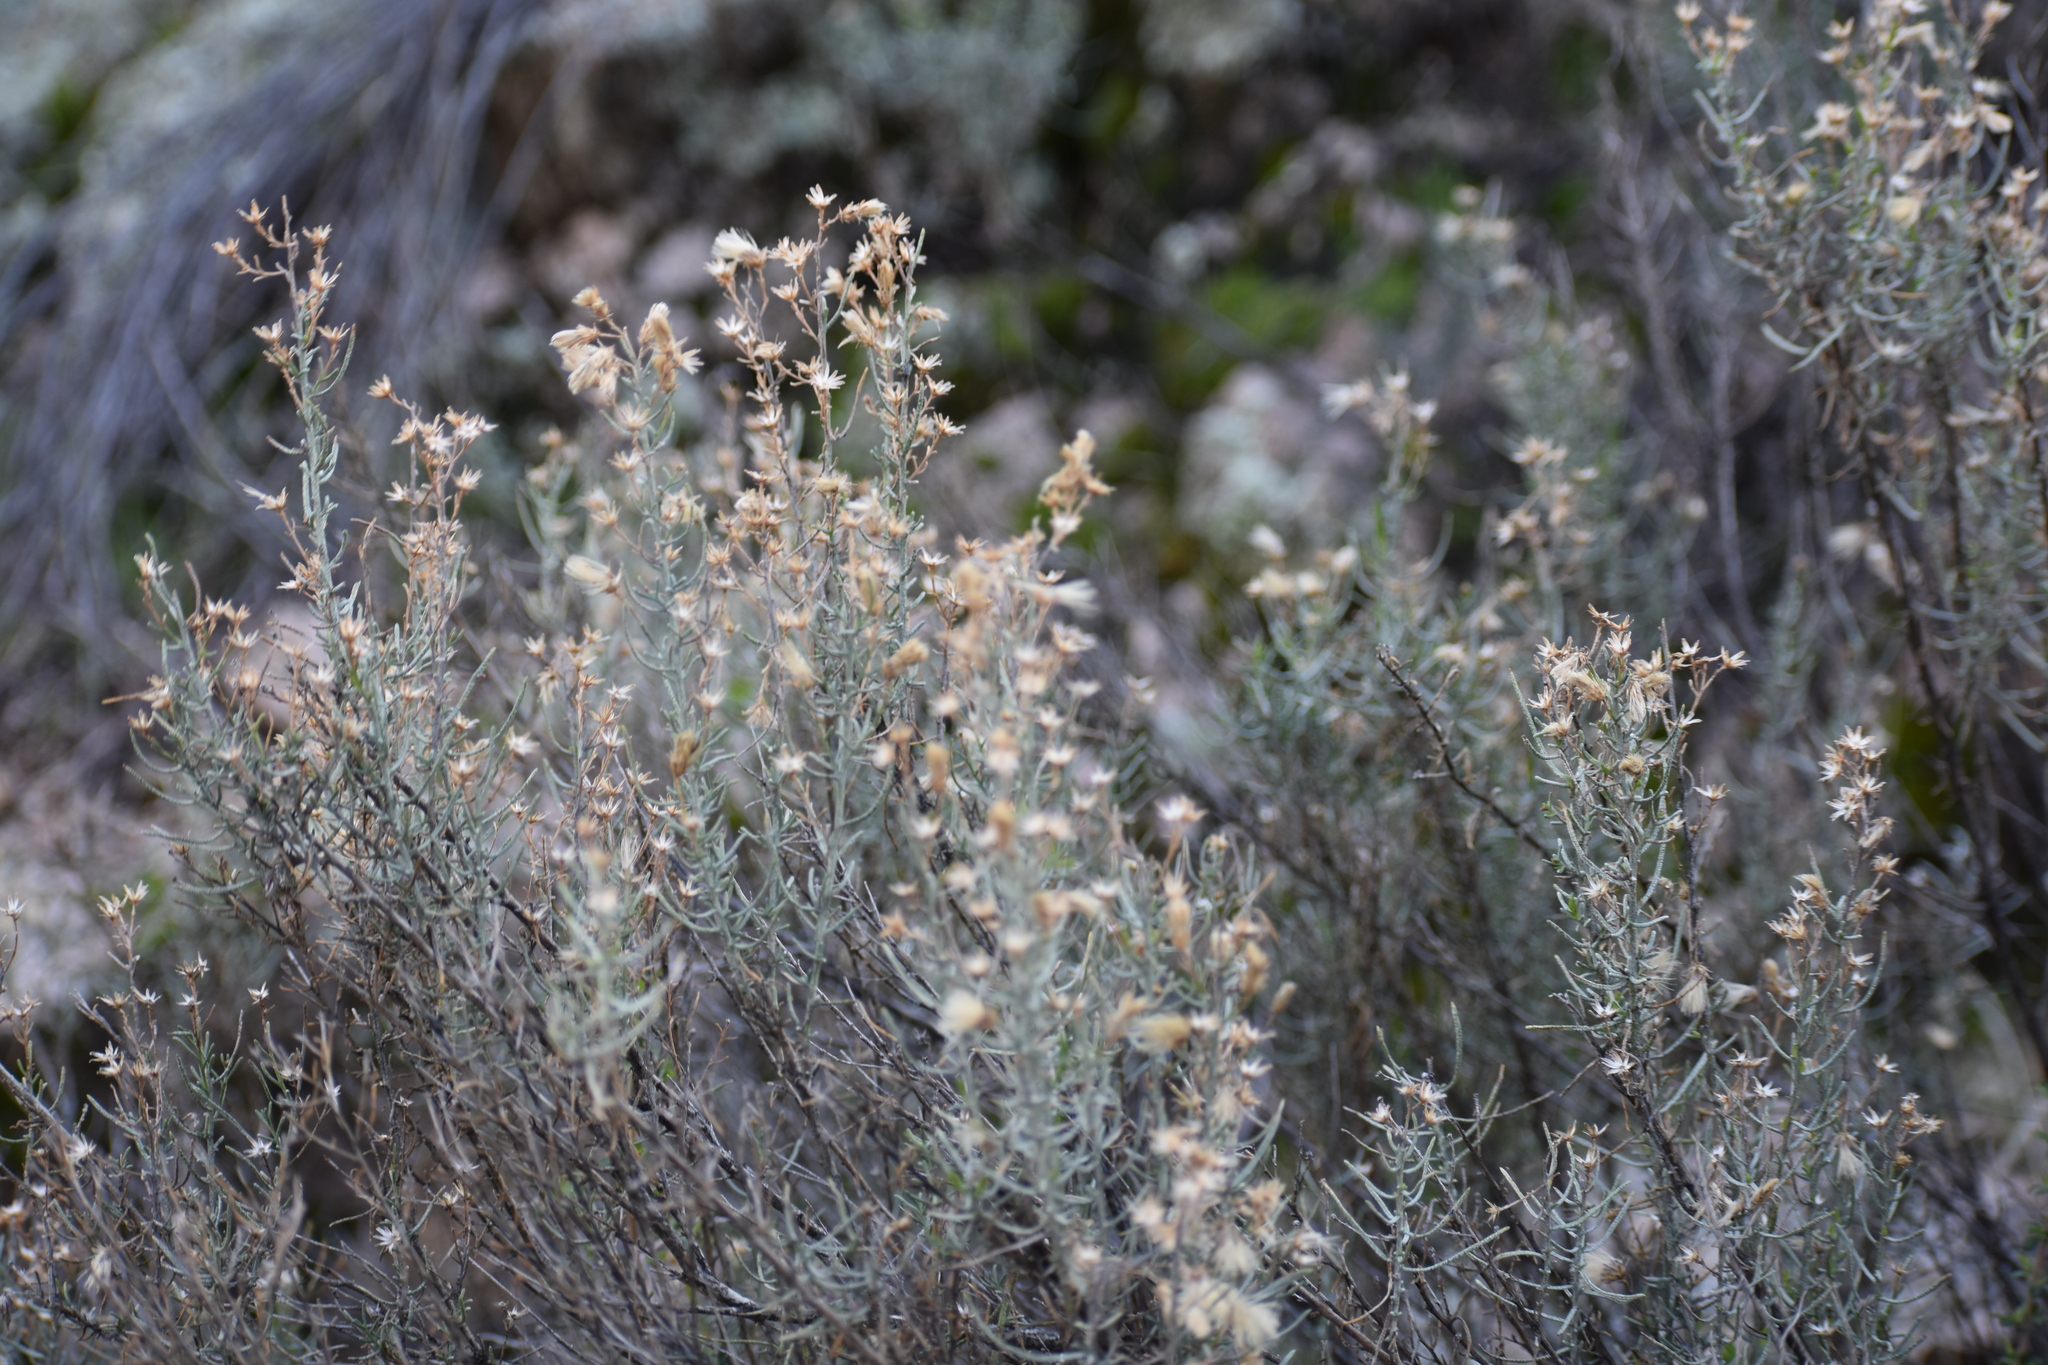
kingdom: Plantae
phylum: Tracheophyta
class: Magnoliopsida
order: Asterales
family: Asteraceae
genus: Ericameria
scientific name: Ericameria laricifolia
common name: Turpentine-bush
